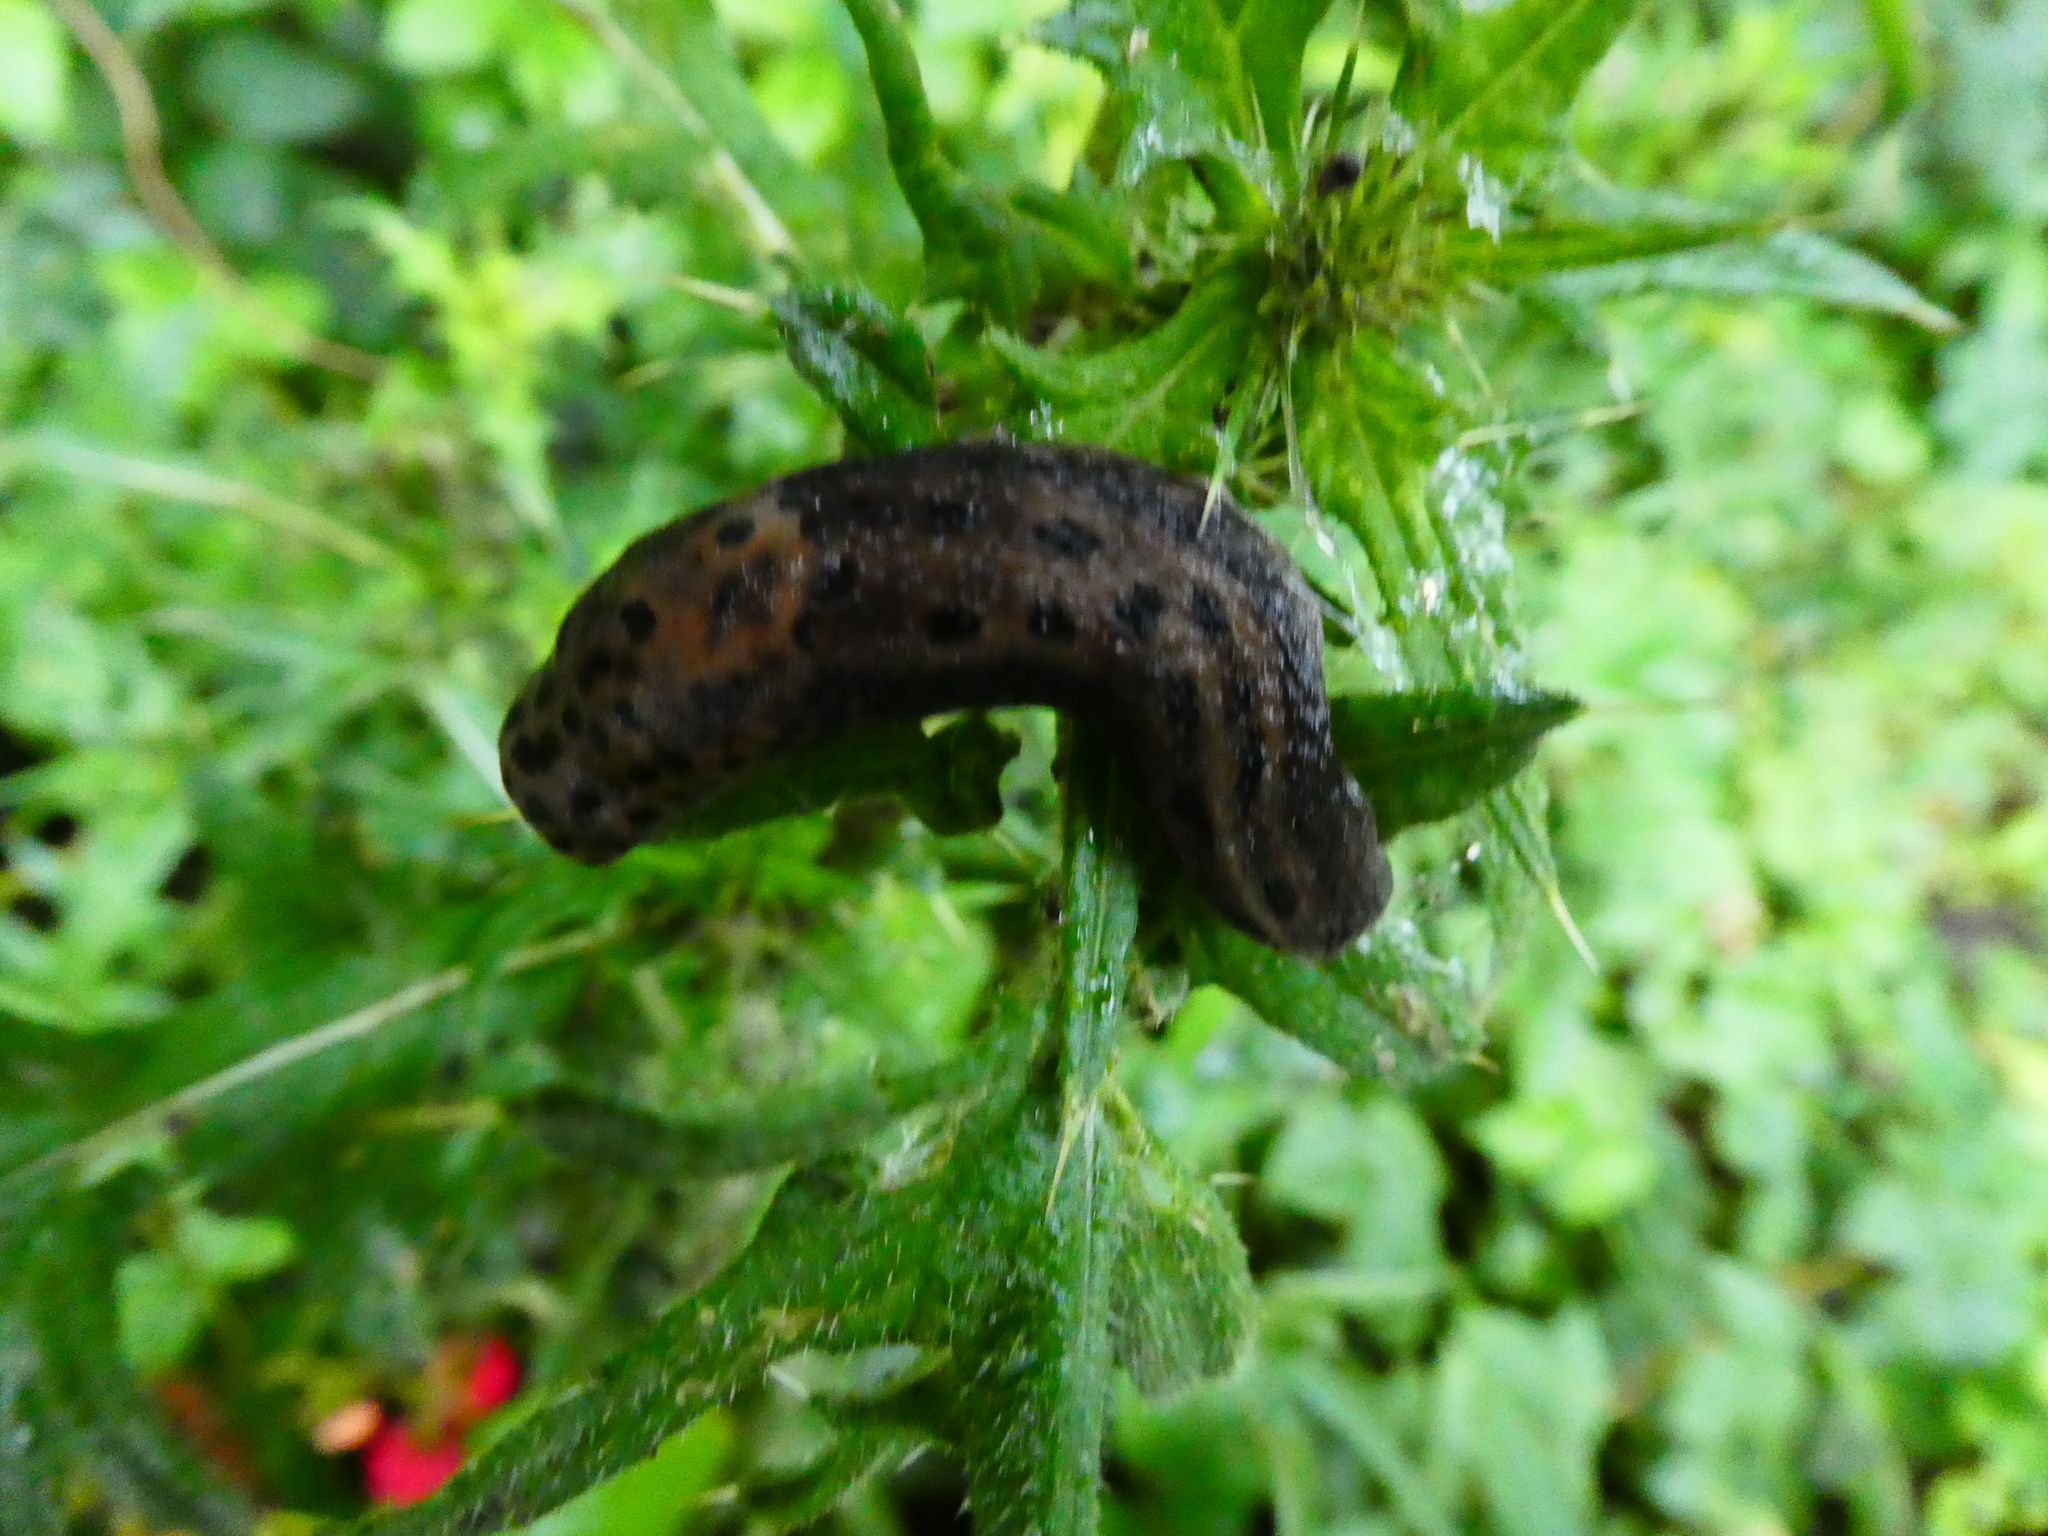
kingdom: Animalia
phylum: Mollusca
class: Gastropoda
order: Stylommatophora
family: Limacidae
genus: Limax
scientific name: Limax maximus
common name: Great grey slug
